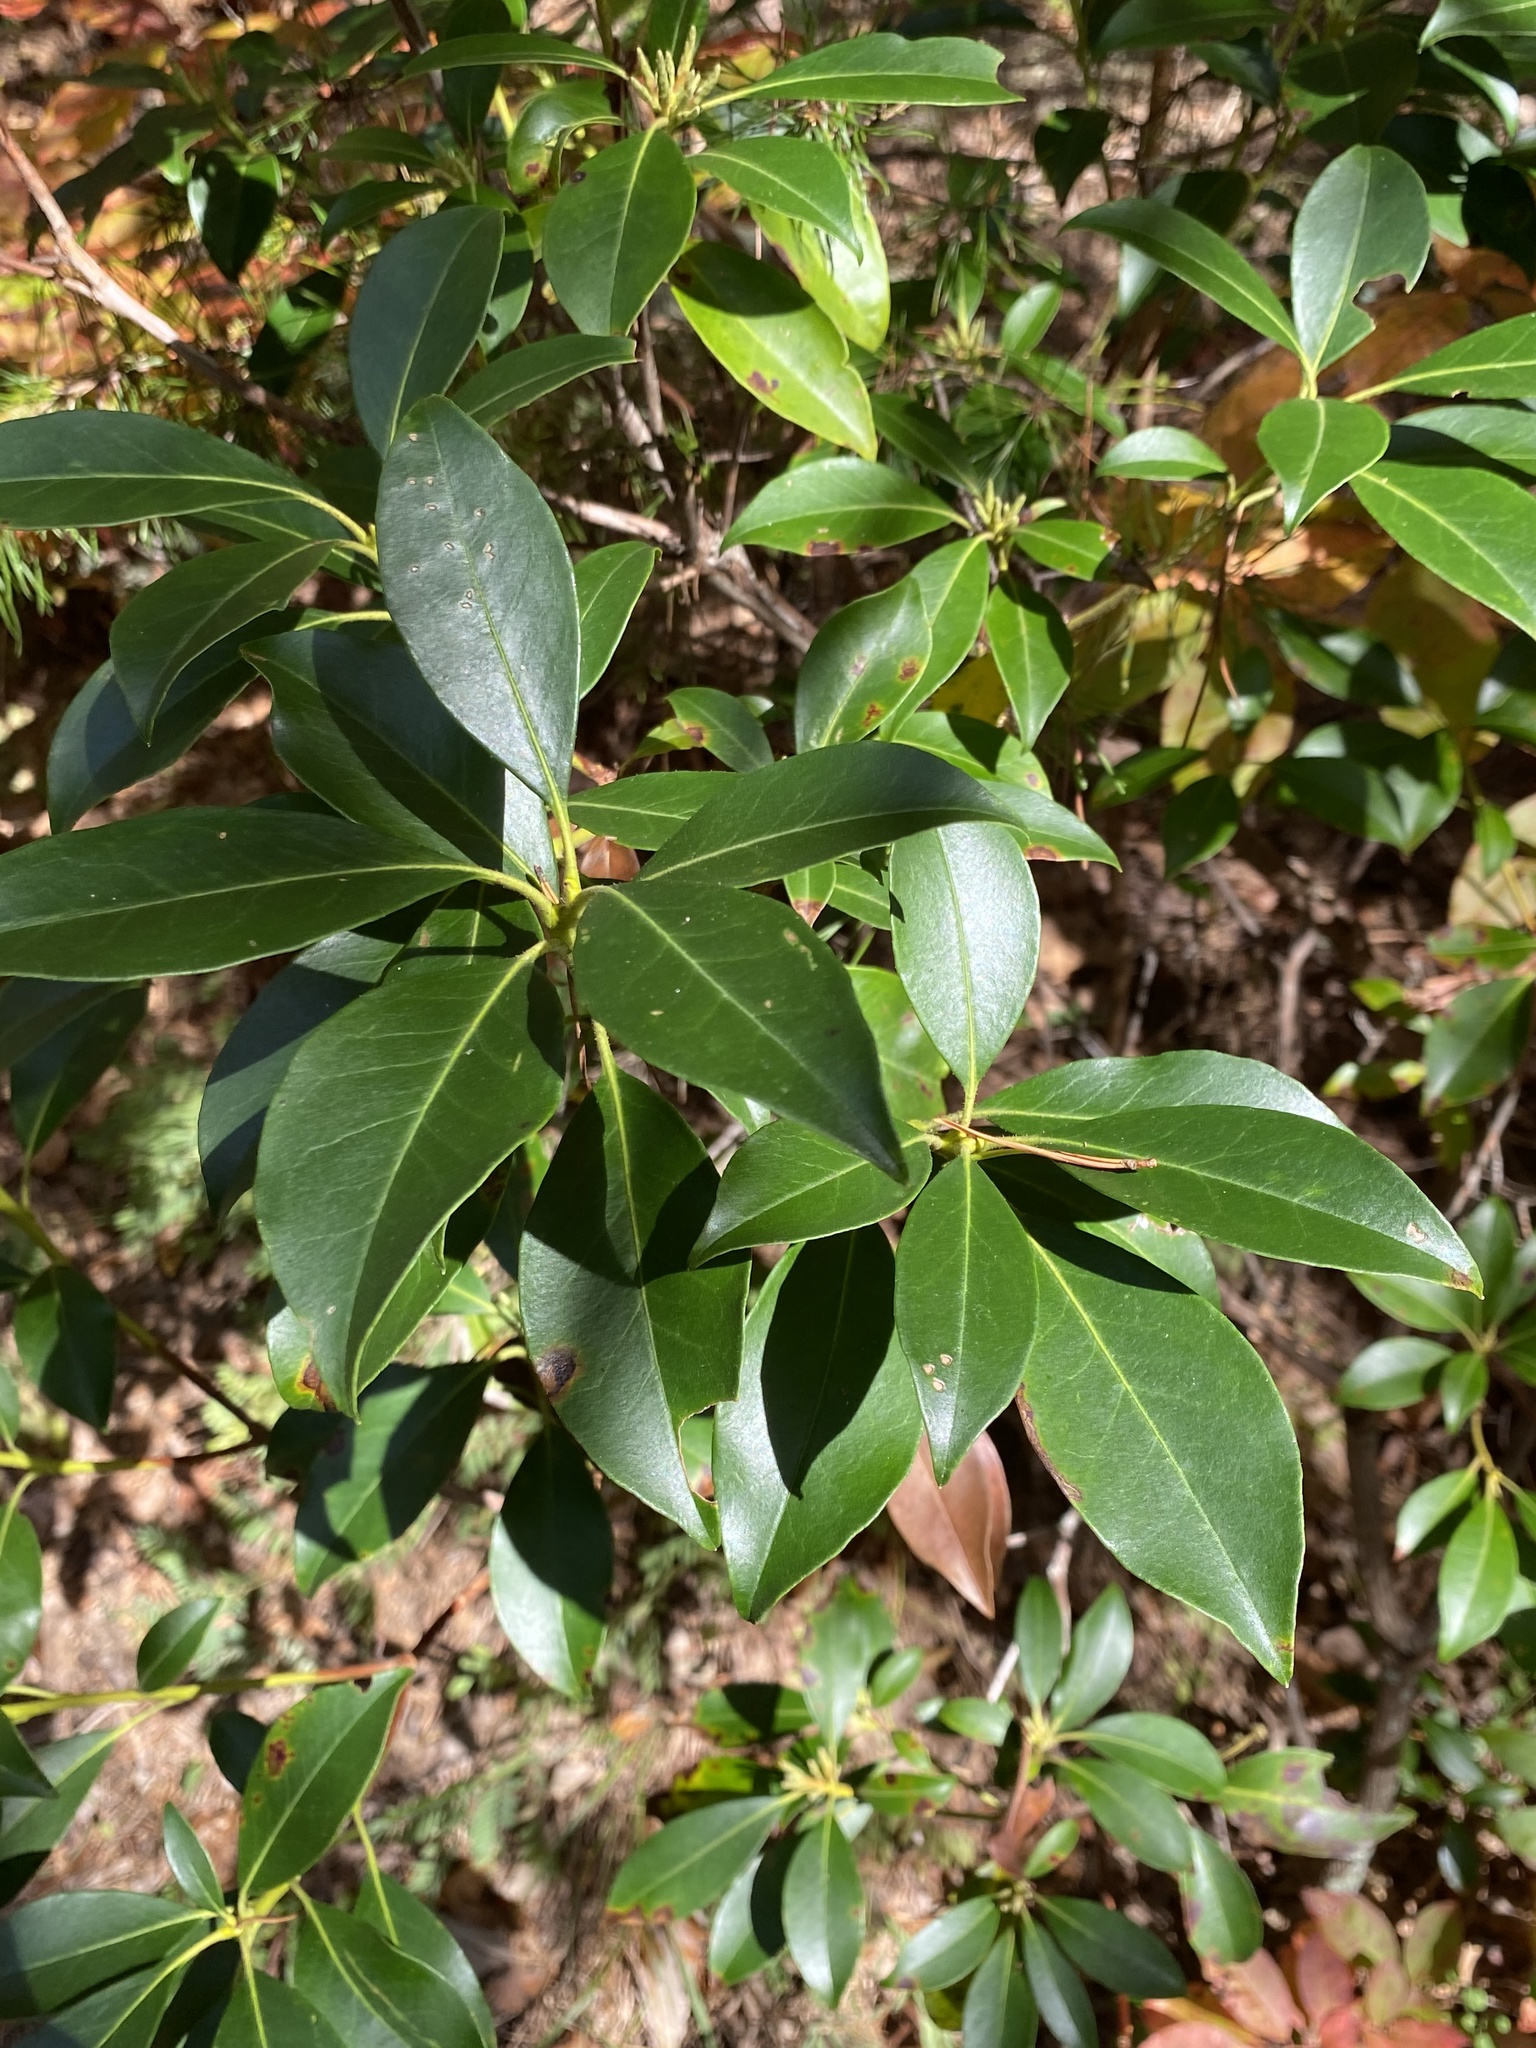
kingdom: Plantae
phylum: Tracheophyta
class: Magnoliopsida
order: Ericales
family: Ericaceae
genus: Kalmia
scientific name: Kalmia latifolia
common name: Mountain-laurel
